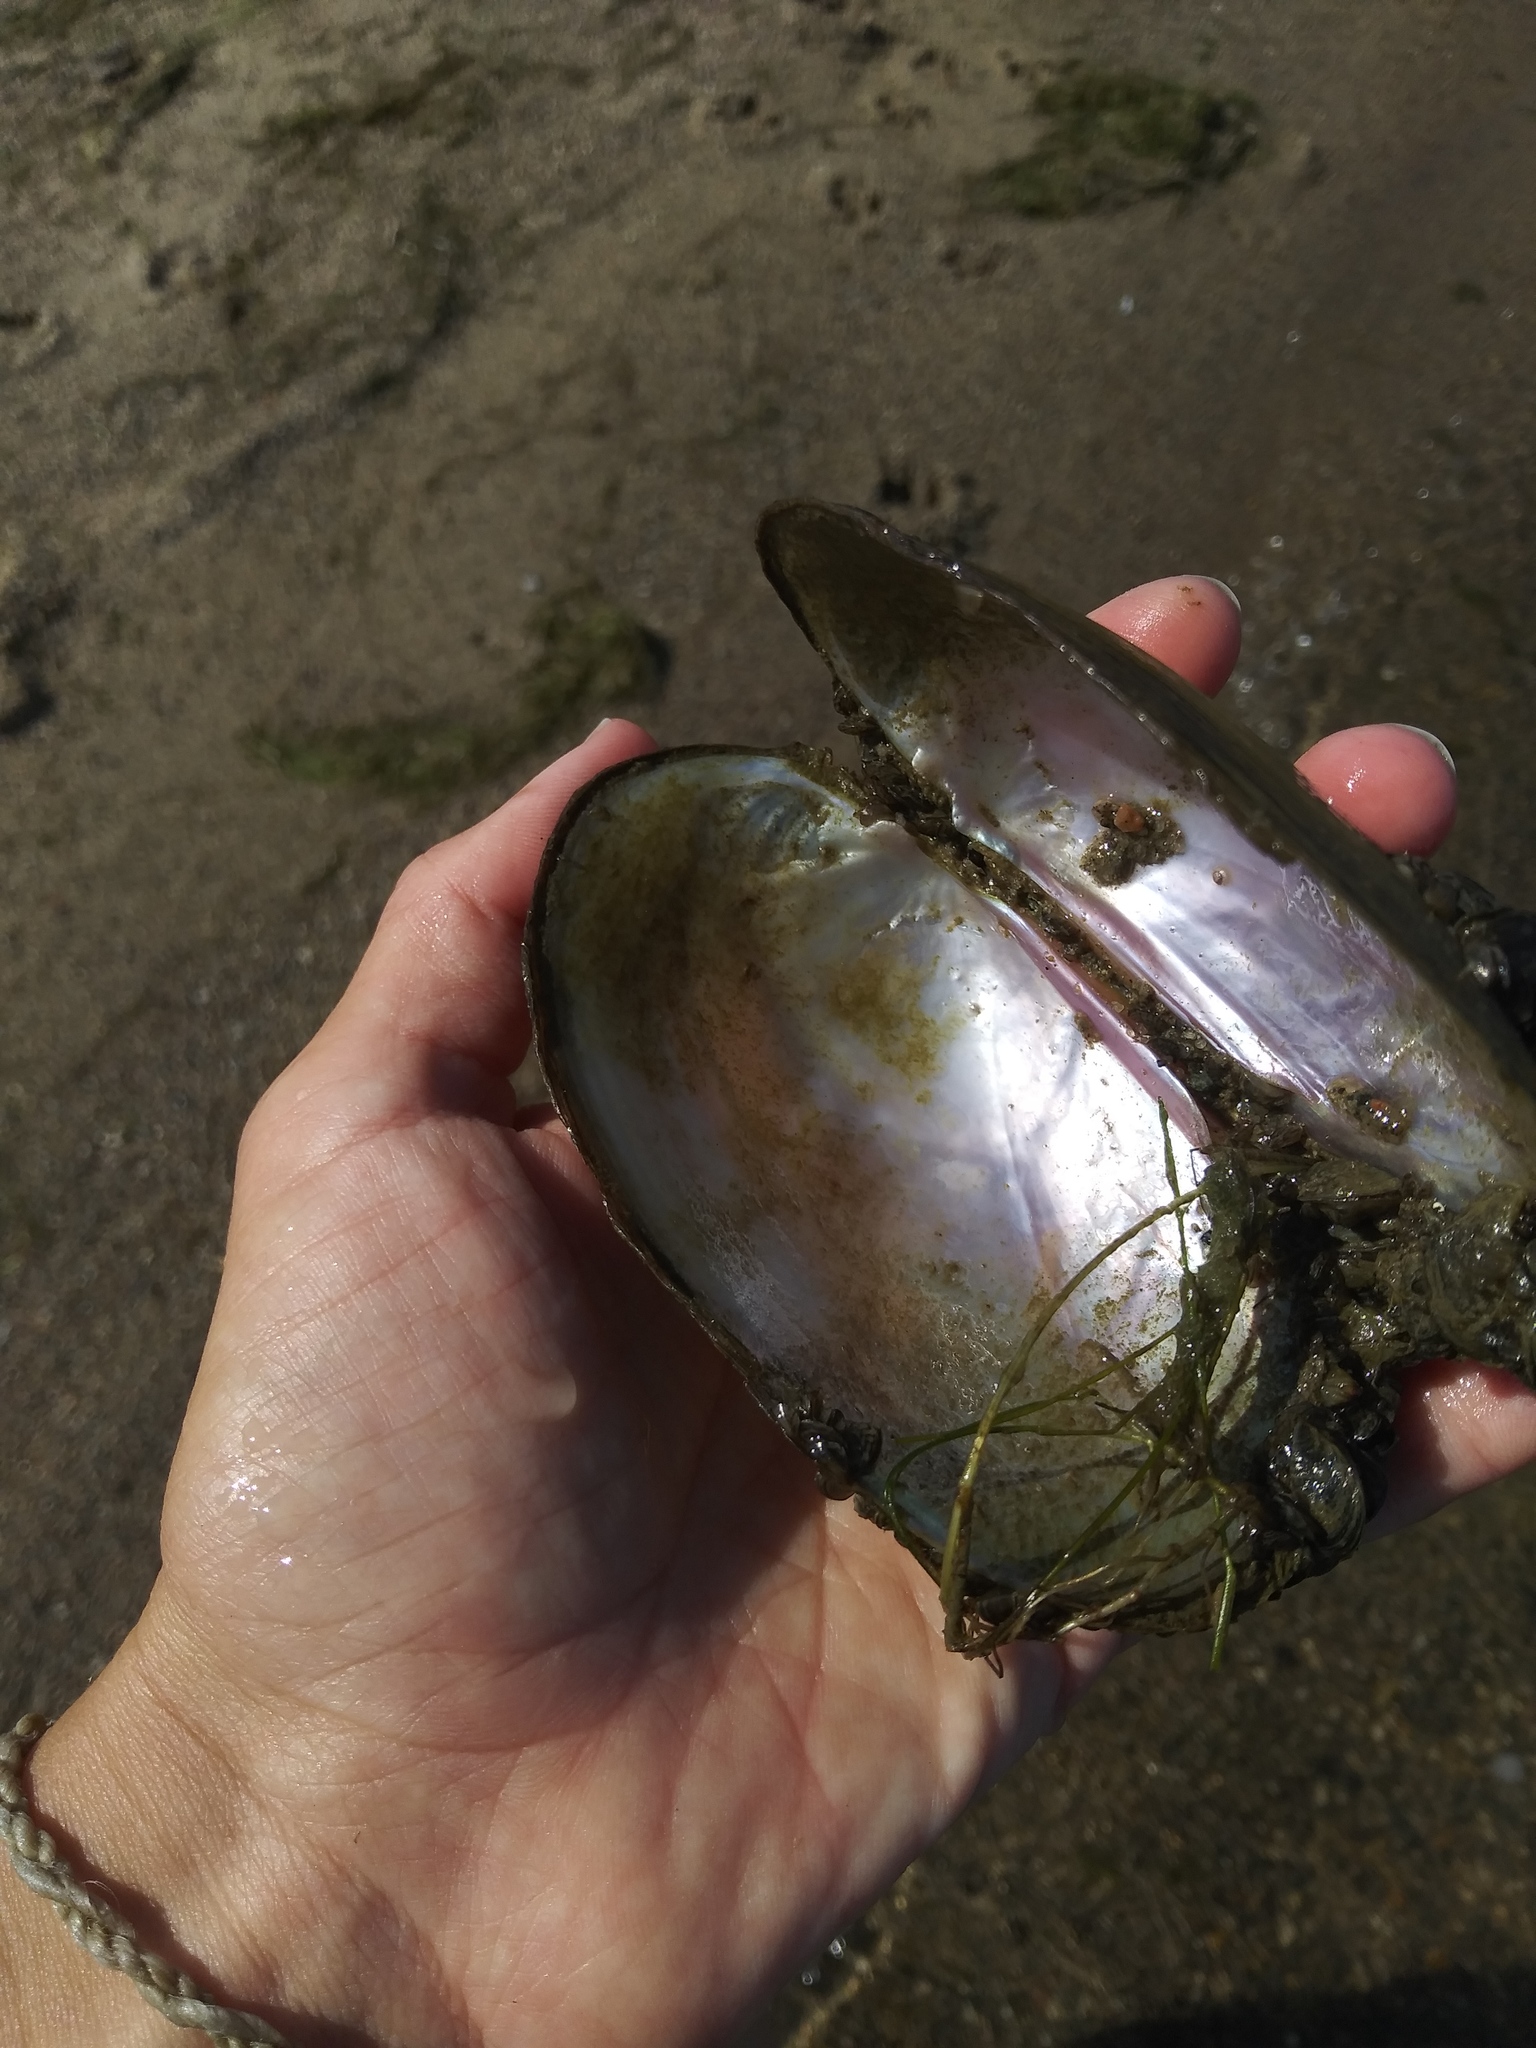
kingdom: Animalia
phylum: Mollusca
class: Bivalvia
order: Unionida
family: Unionidae
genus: Potamilus
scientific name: Potamilus fragilis
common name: Fragile papershell
